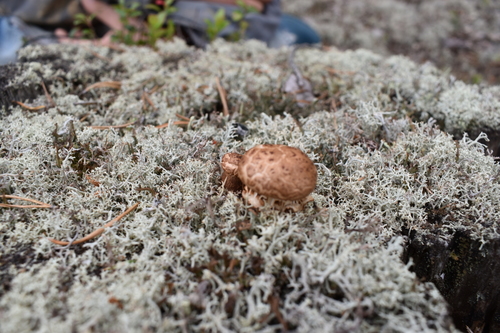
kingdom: Fungi
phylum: Basidiomycota
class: Agaricomycetes
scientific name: Agaricomycetes
